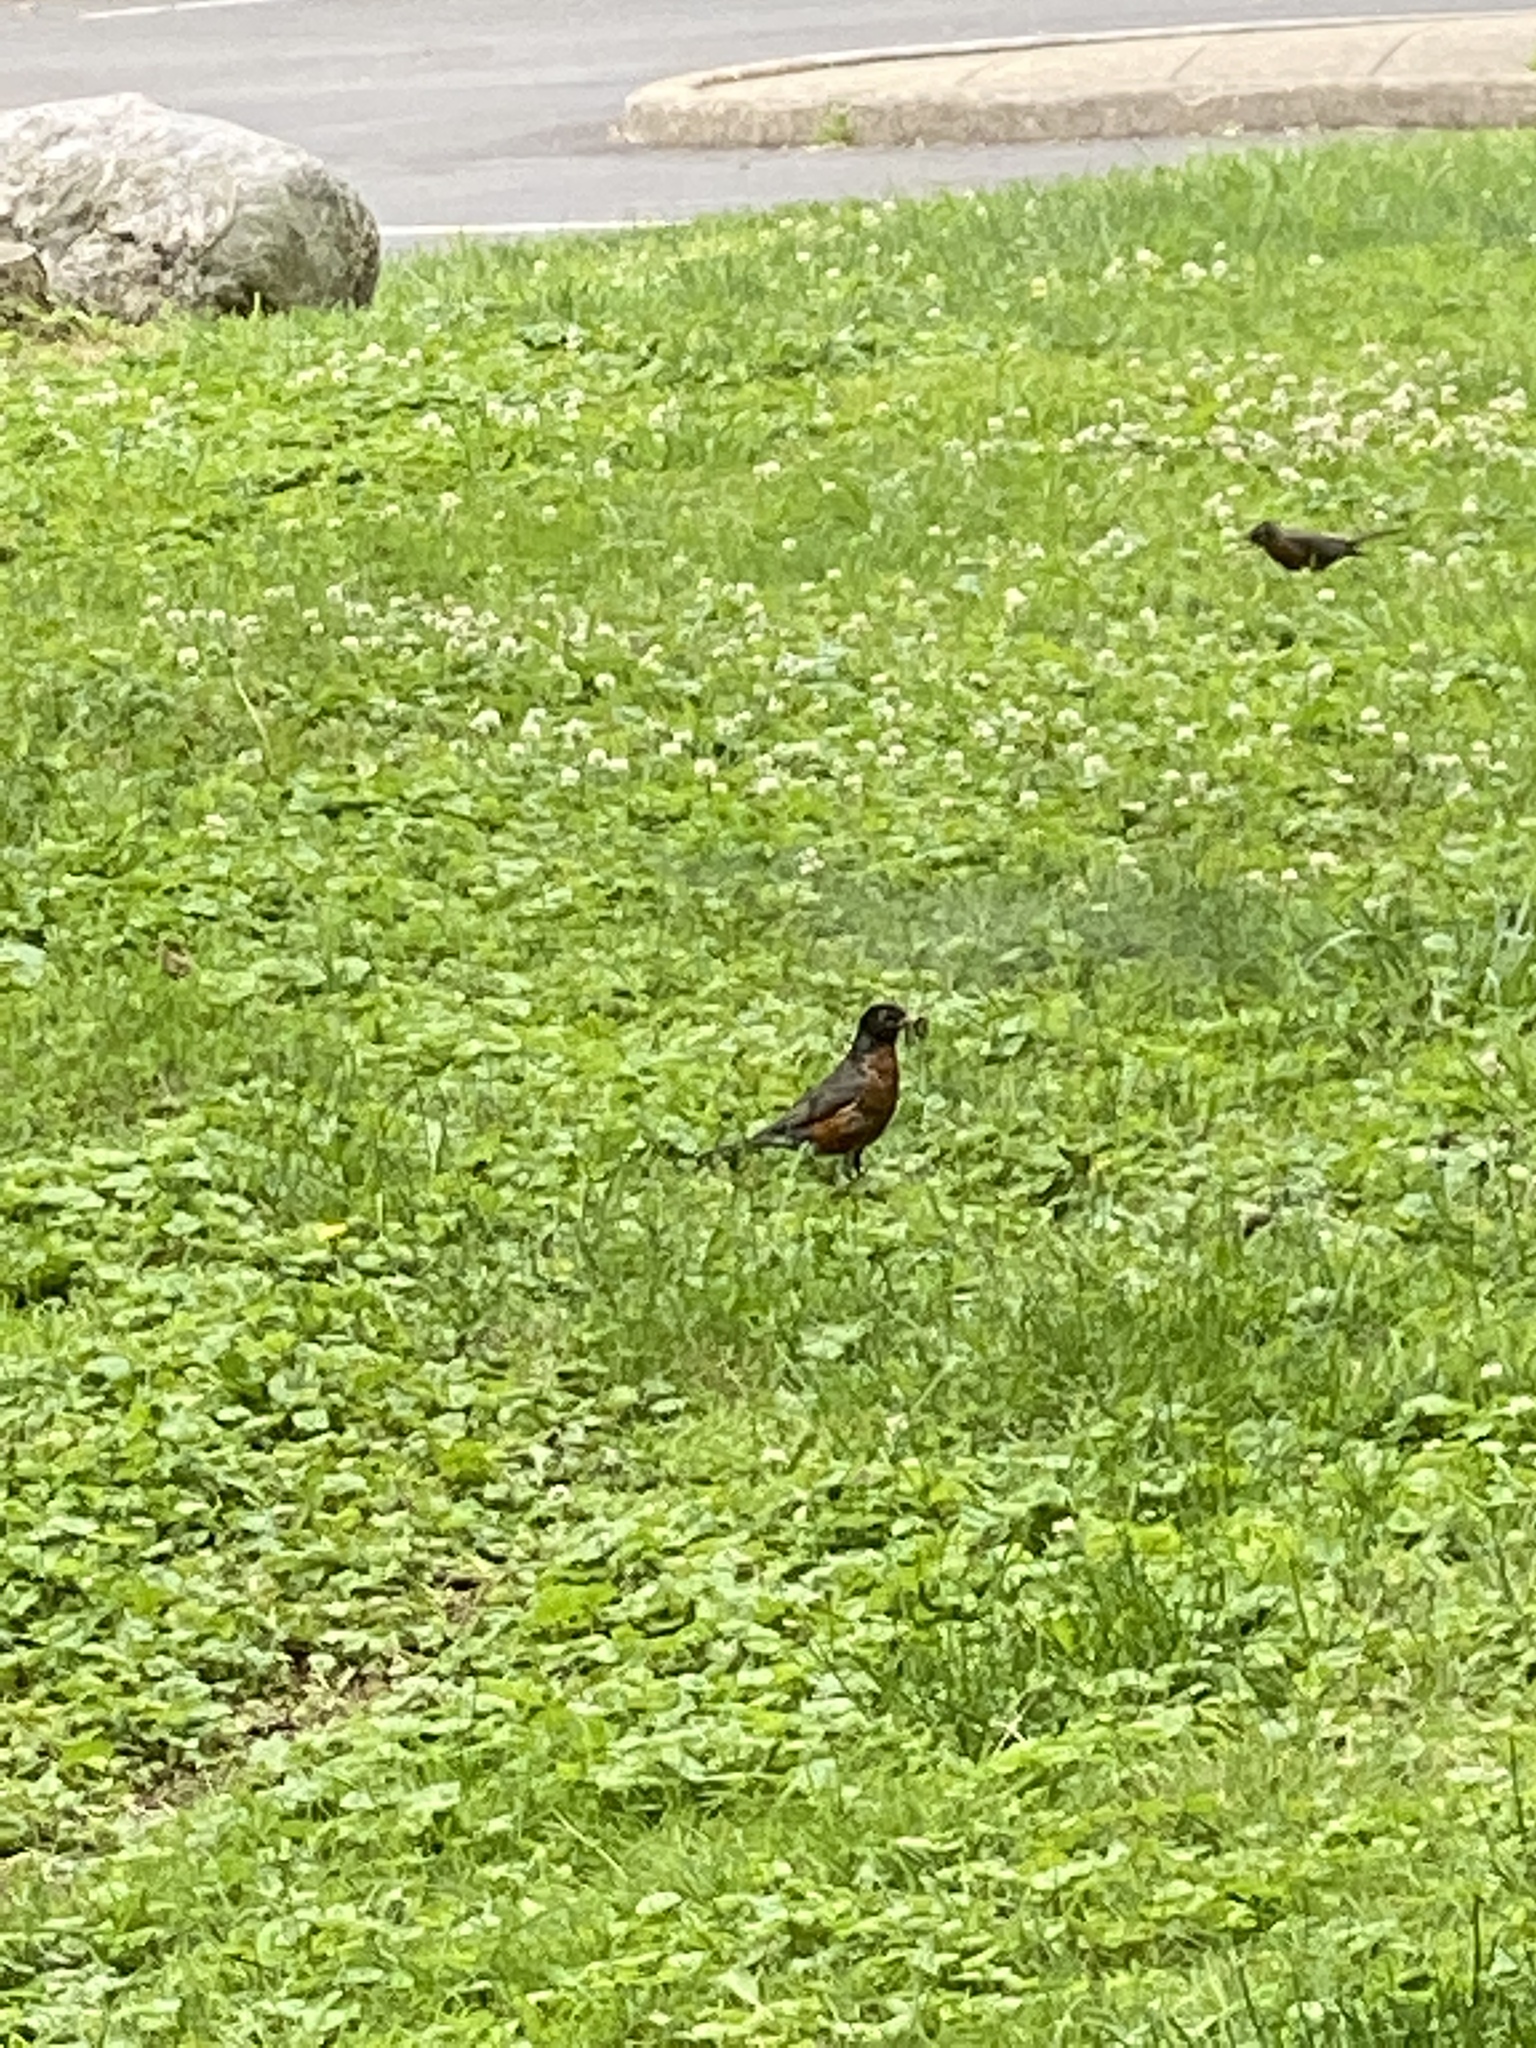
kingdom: Animalia
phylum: Chordata
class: Aves
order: Passeriformes
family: Turdidae
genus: Turdus
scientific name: Turdus migratorius
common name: American robin
